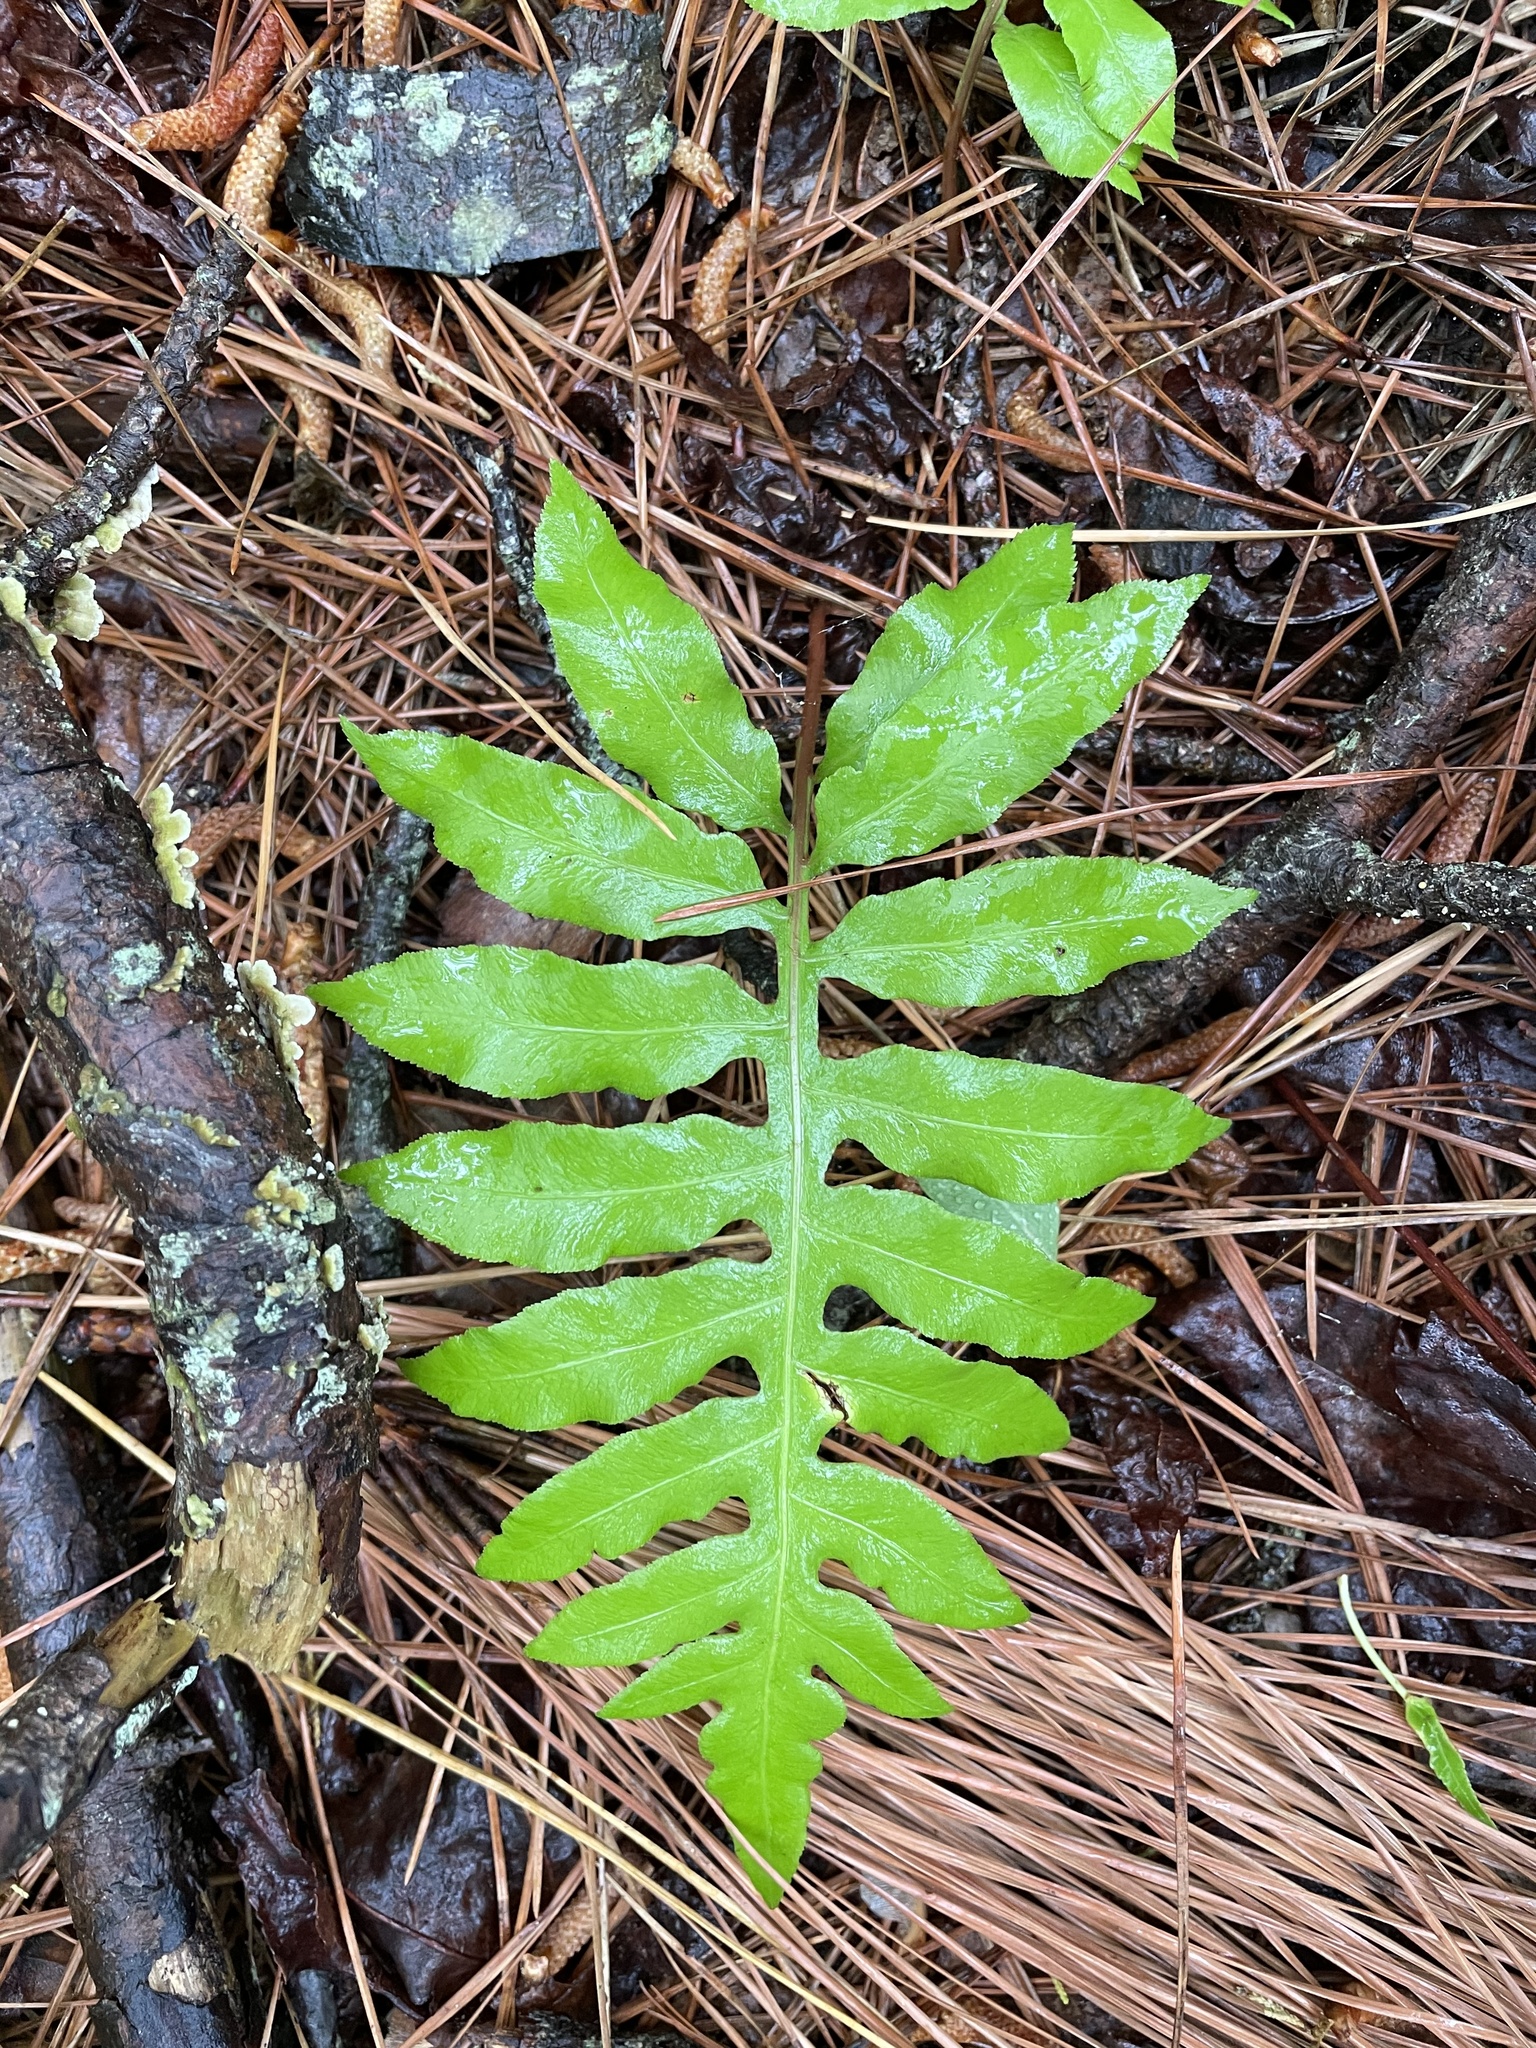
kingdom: Plantae
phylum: Tracheophyta
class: Polypodiopsida
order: Polypodiales
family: Blechnaceae
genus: Lorinseria
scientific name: Lorinseria areolata
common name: Dwarf chain fern
